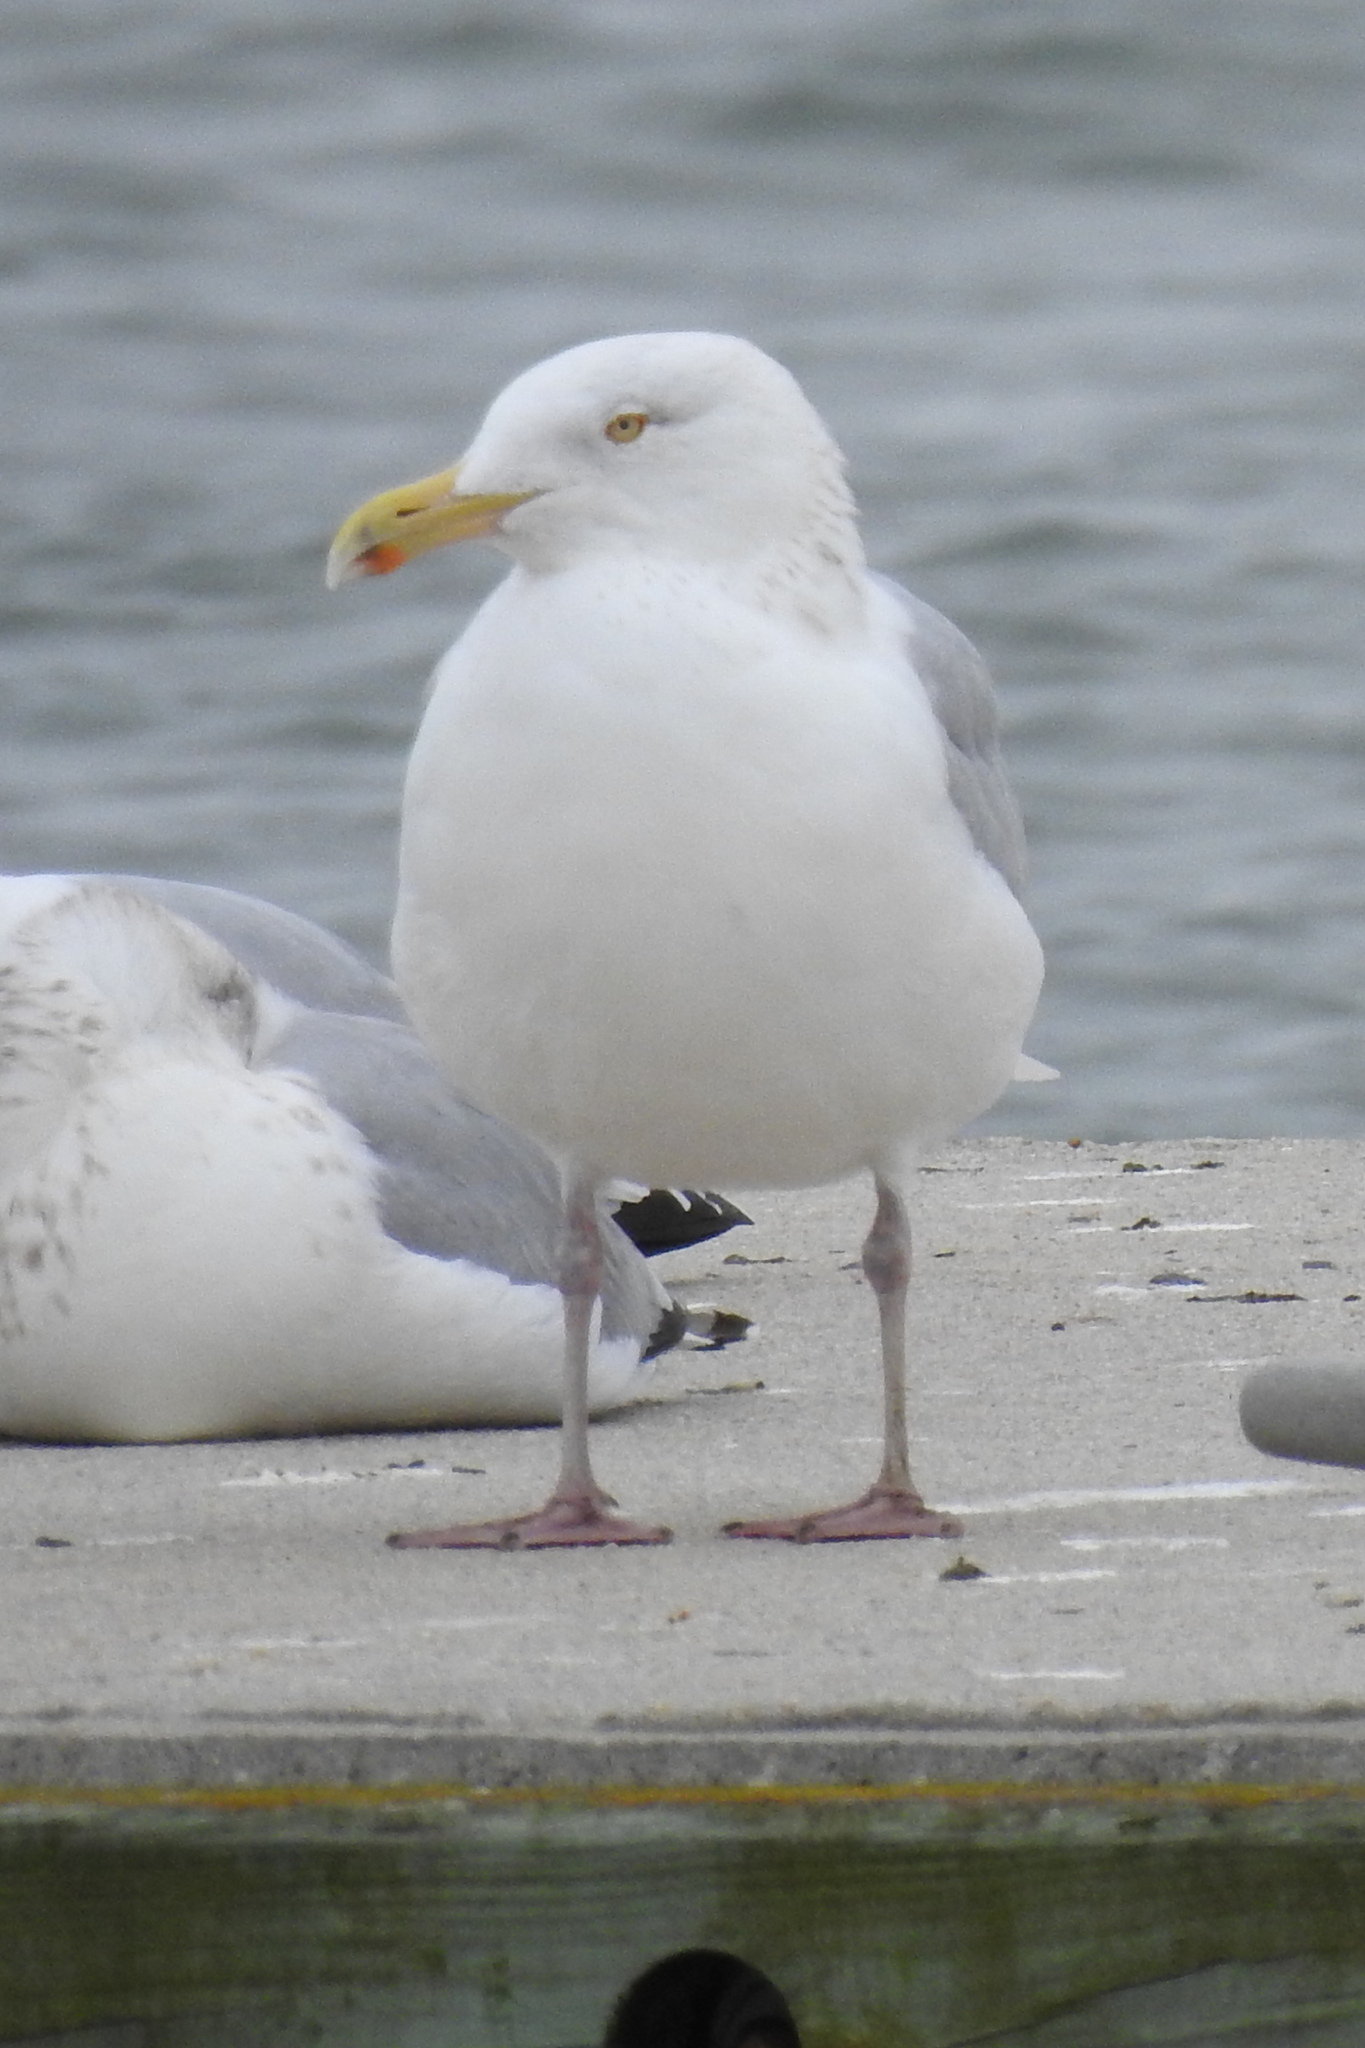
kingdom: Animalia
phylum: Chordata
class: Aves
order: Charadriiformes
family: Laridae
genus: Larus
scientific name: Larus argentatus
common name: Herring gull
